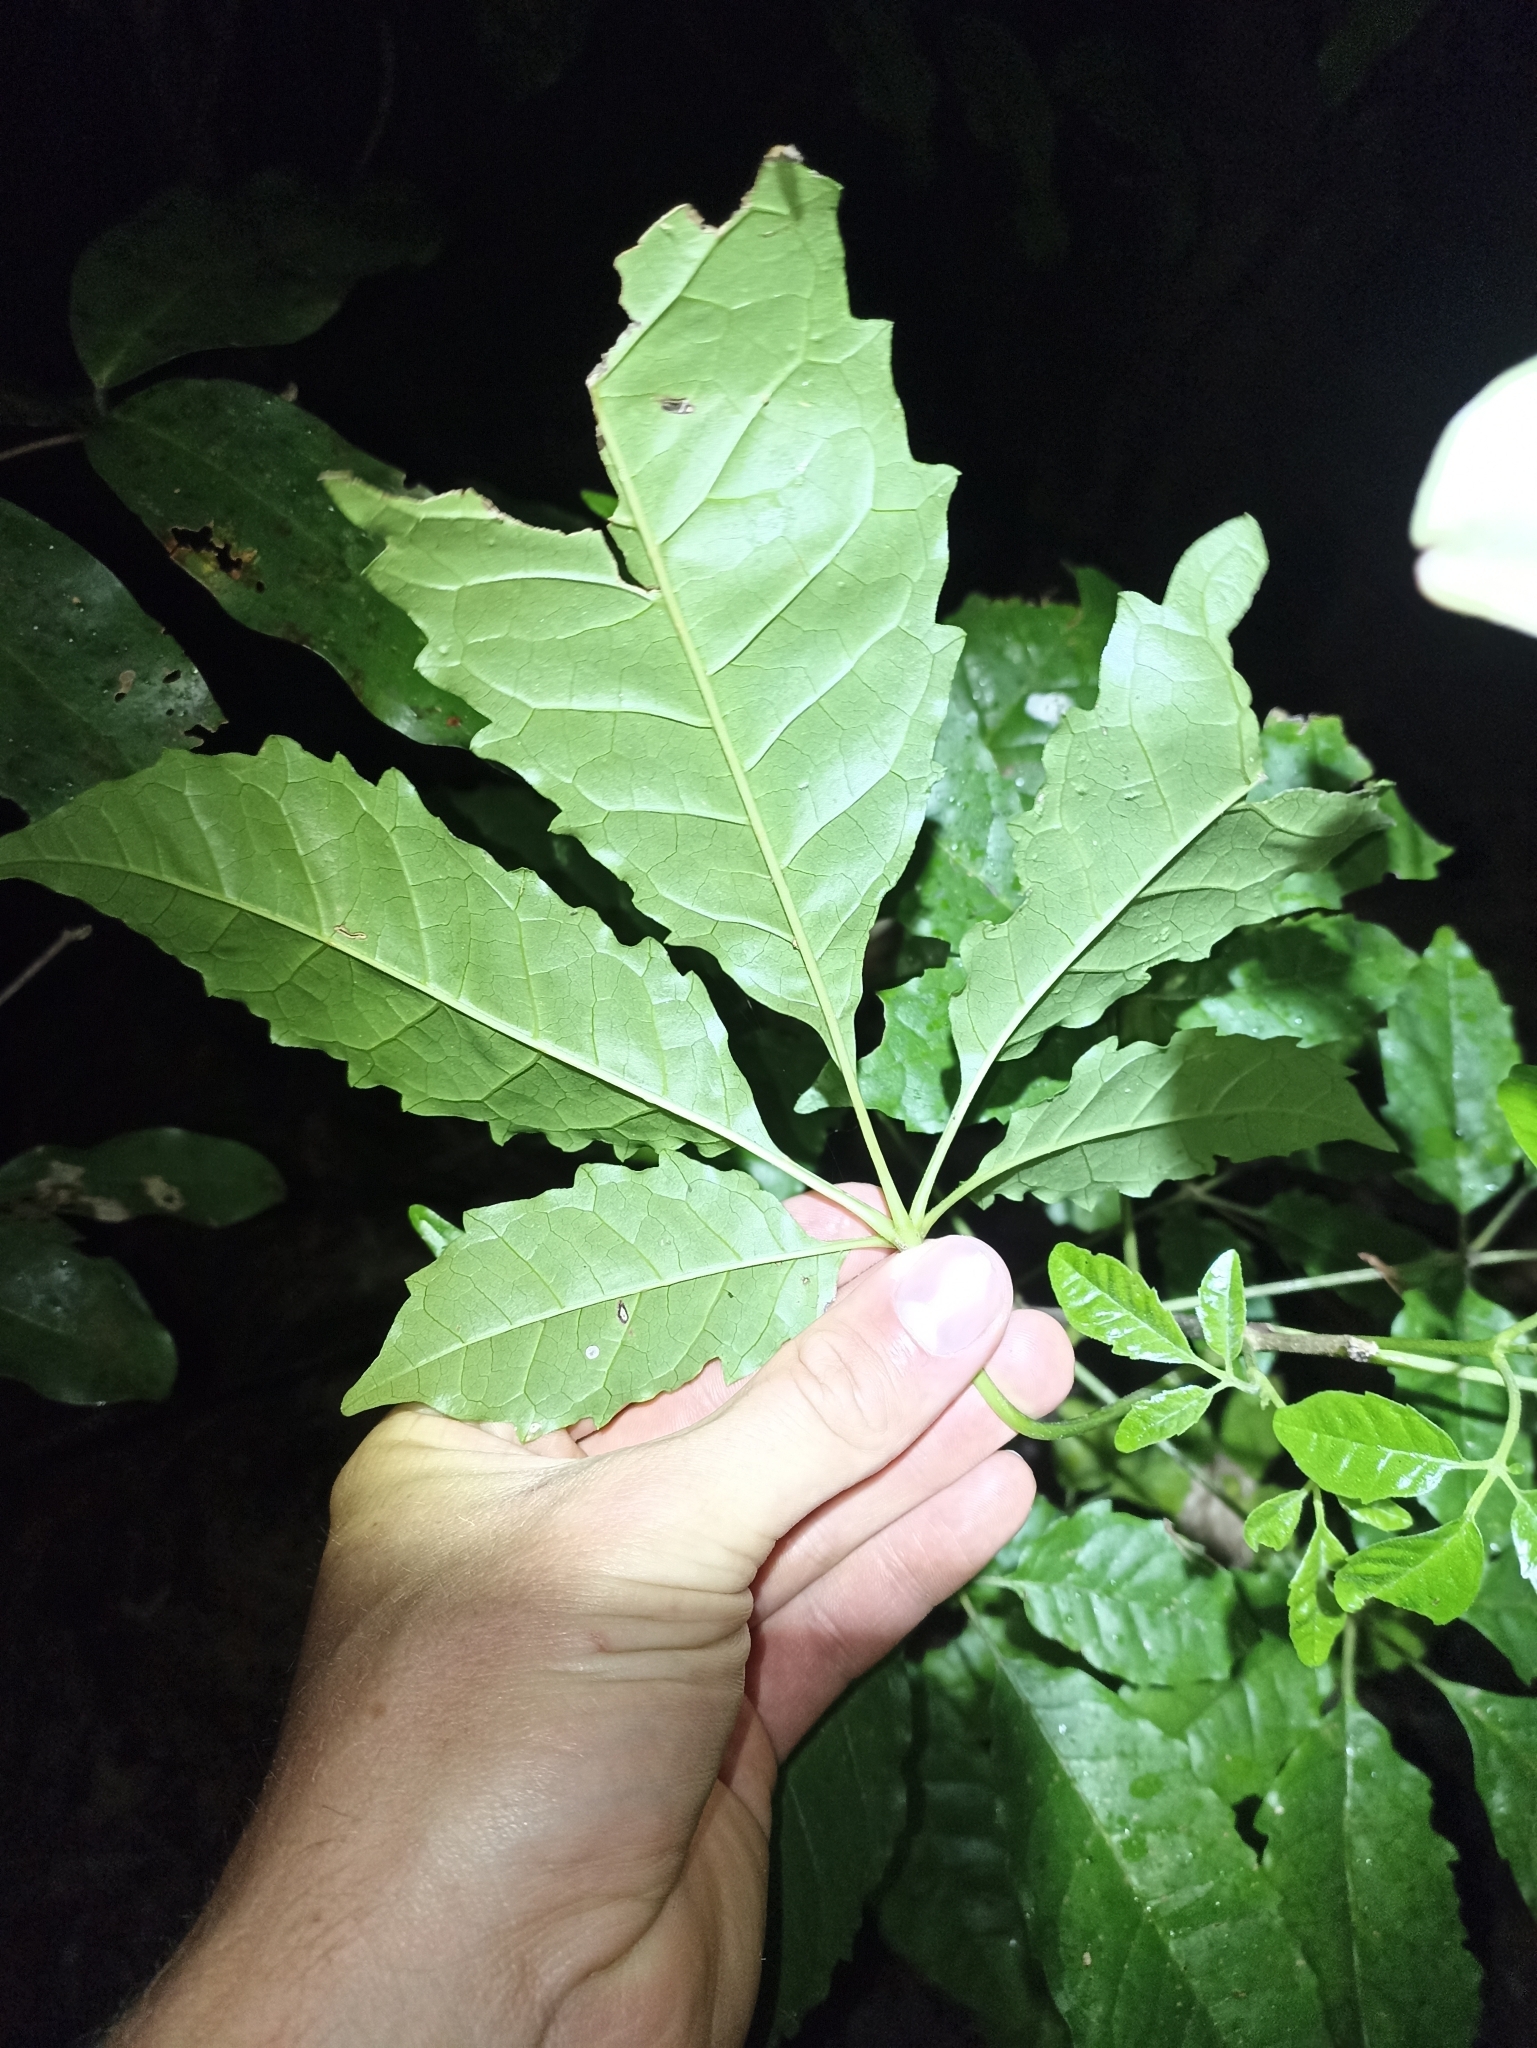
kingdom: Plantae
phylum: Tracheophyta
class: Magnoliopsida
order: Lamiales
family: Lamiaceae
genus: Vitex
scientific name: Vitex lucens
